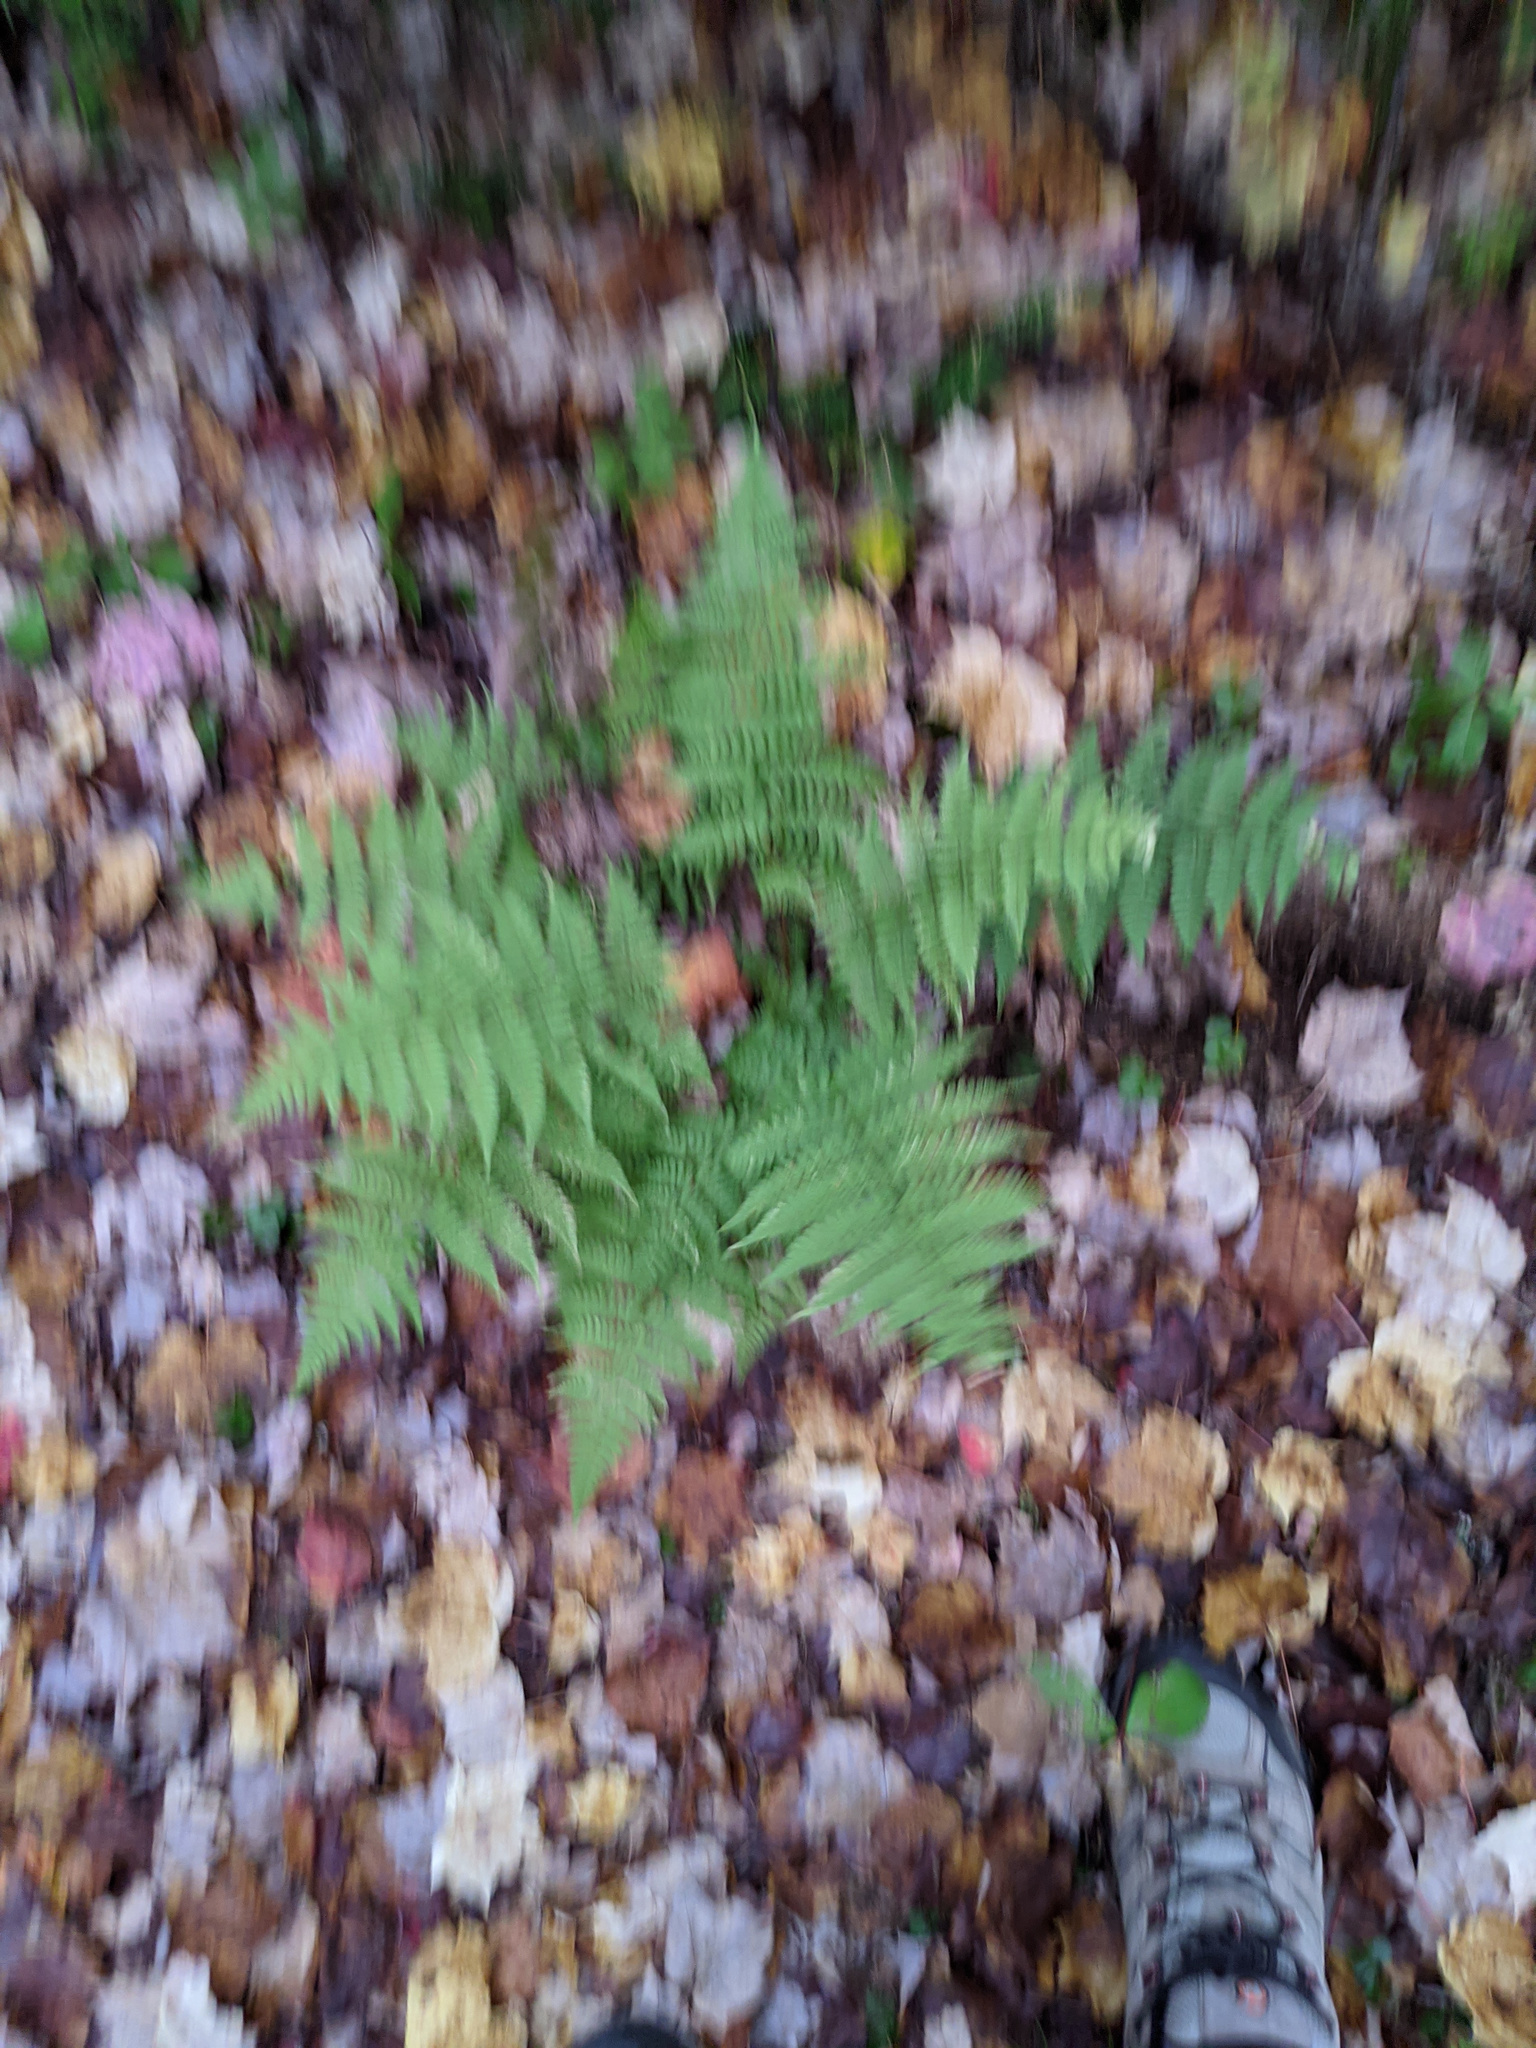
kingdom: Plantae
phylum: Tracheophyta
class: Polypodiopsida
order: Polypodiales
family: Dryopteridaceae
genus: Dryopteris
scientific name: Dryopteris intermedia
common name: Evergreen wood fern
